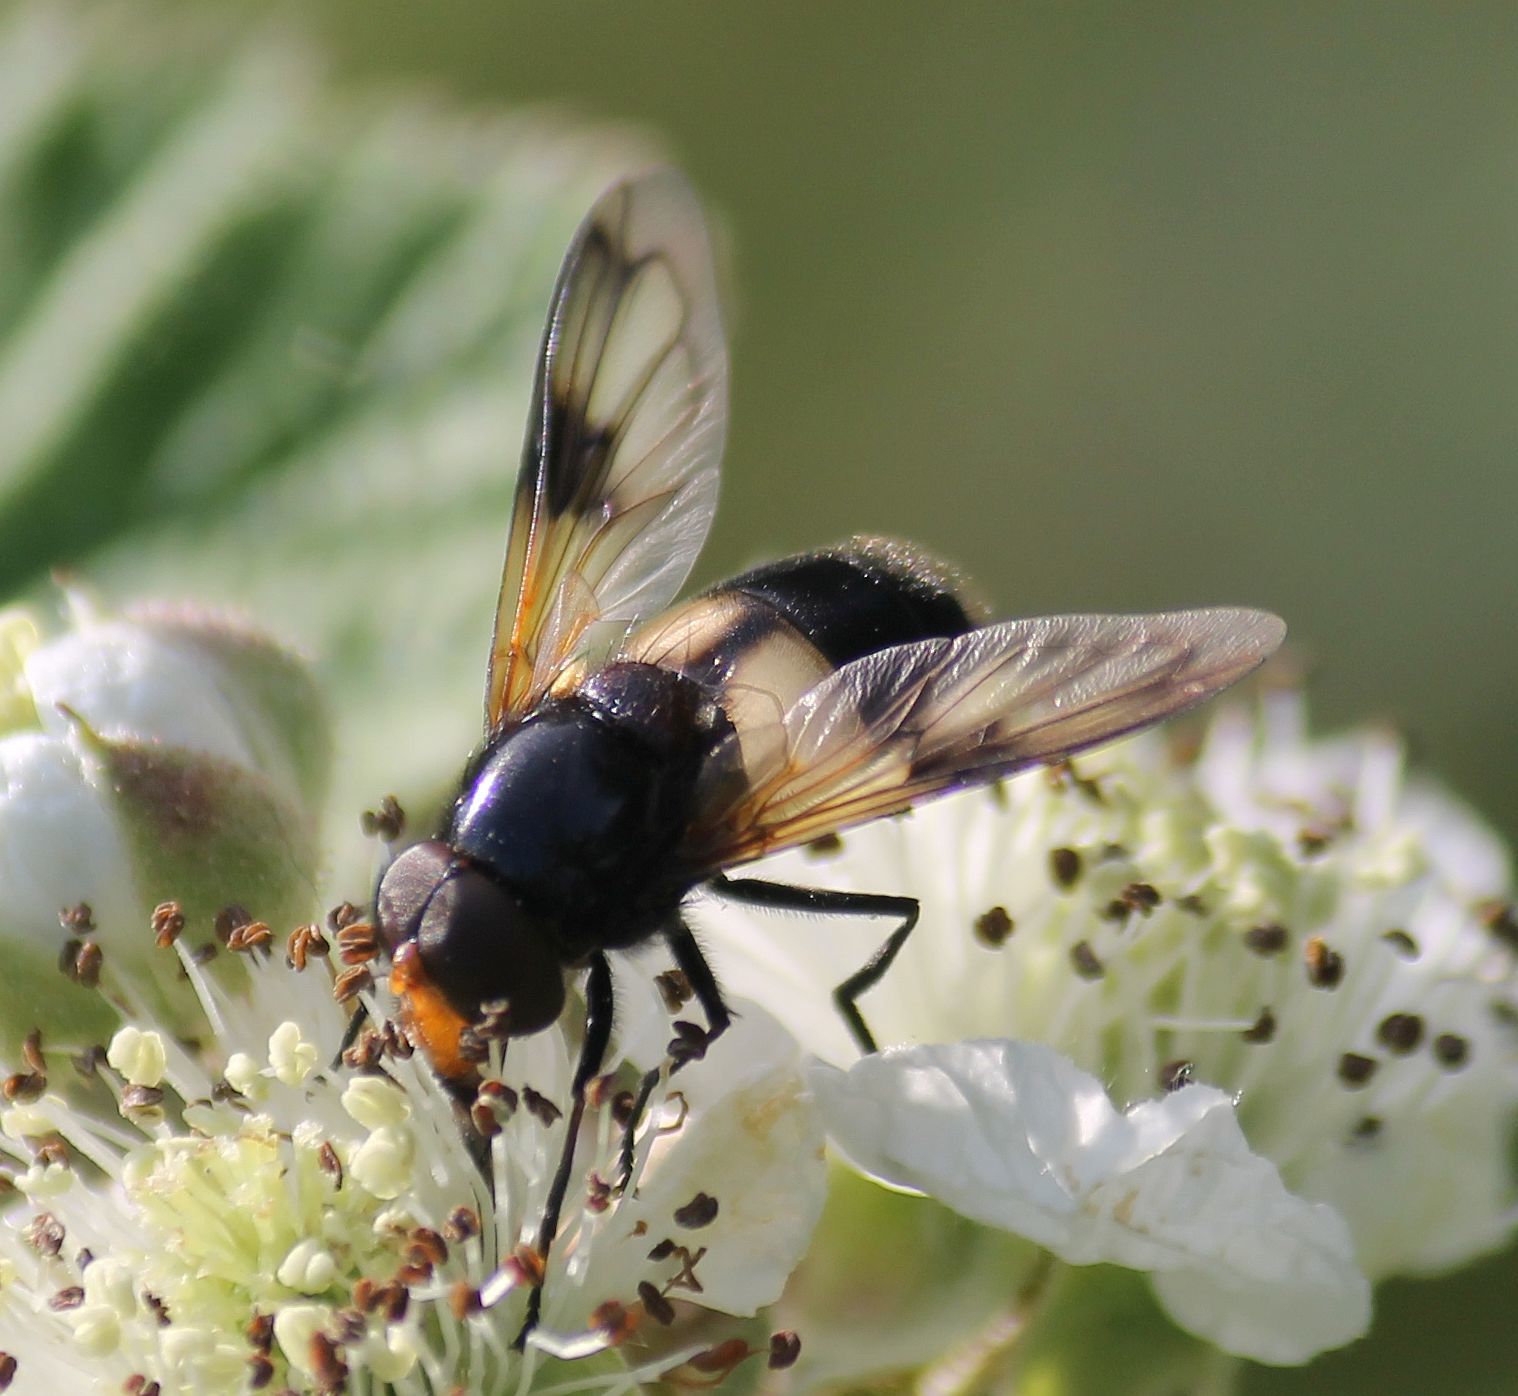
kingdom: Animalia
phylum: Arthropoda
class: Insecta
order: Diptera
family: Syrphidae
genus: Volucella
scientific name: Volucella pellucens
